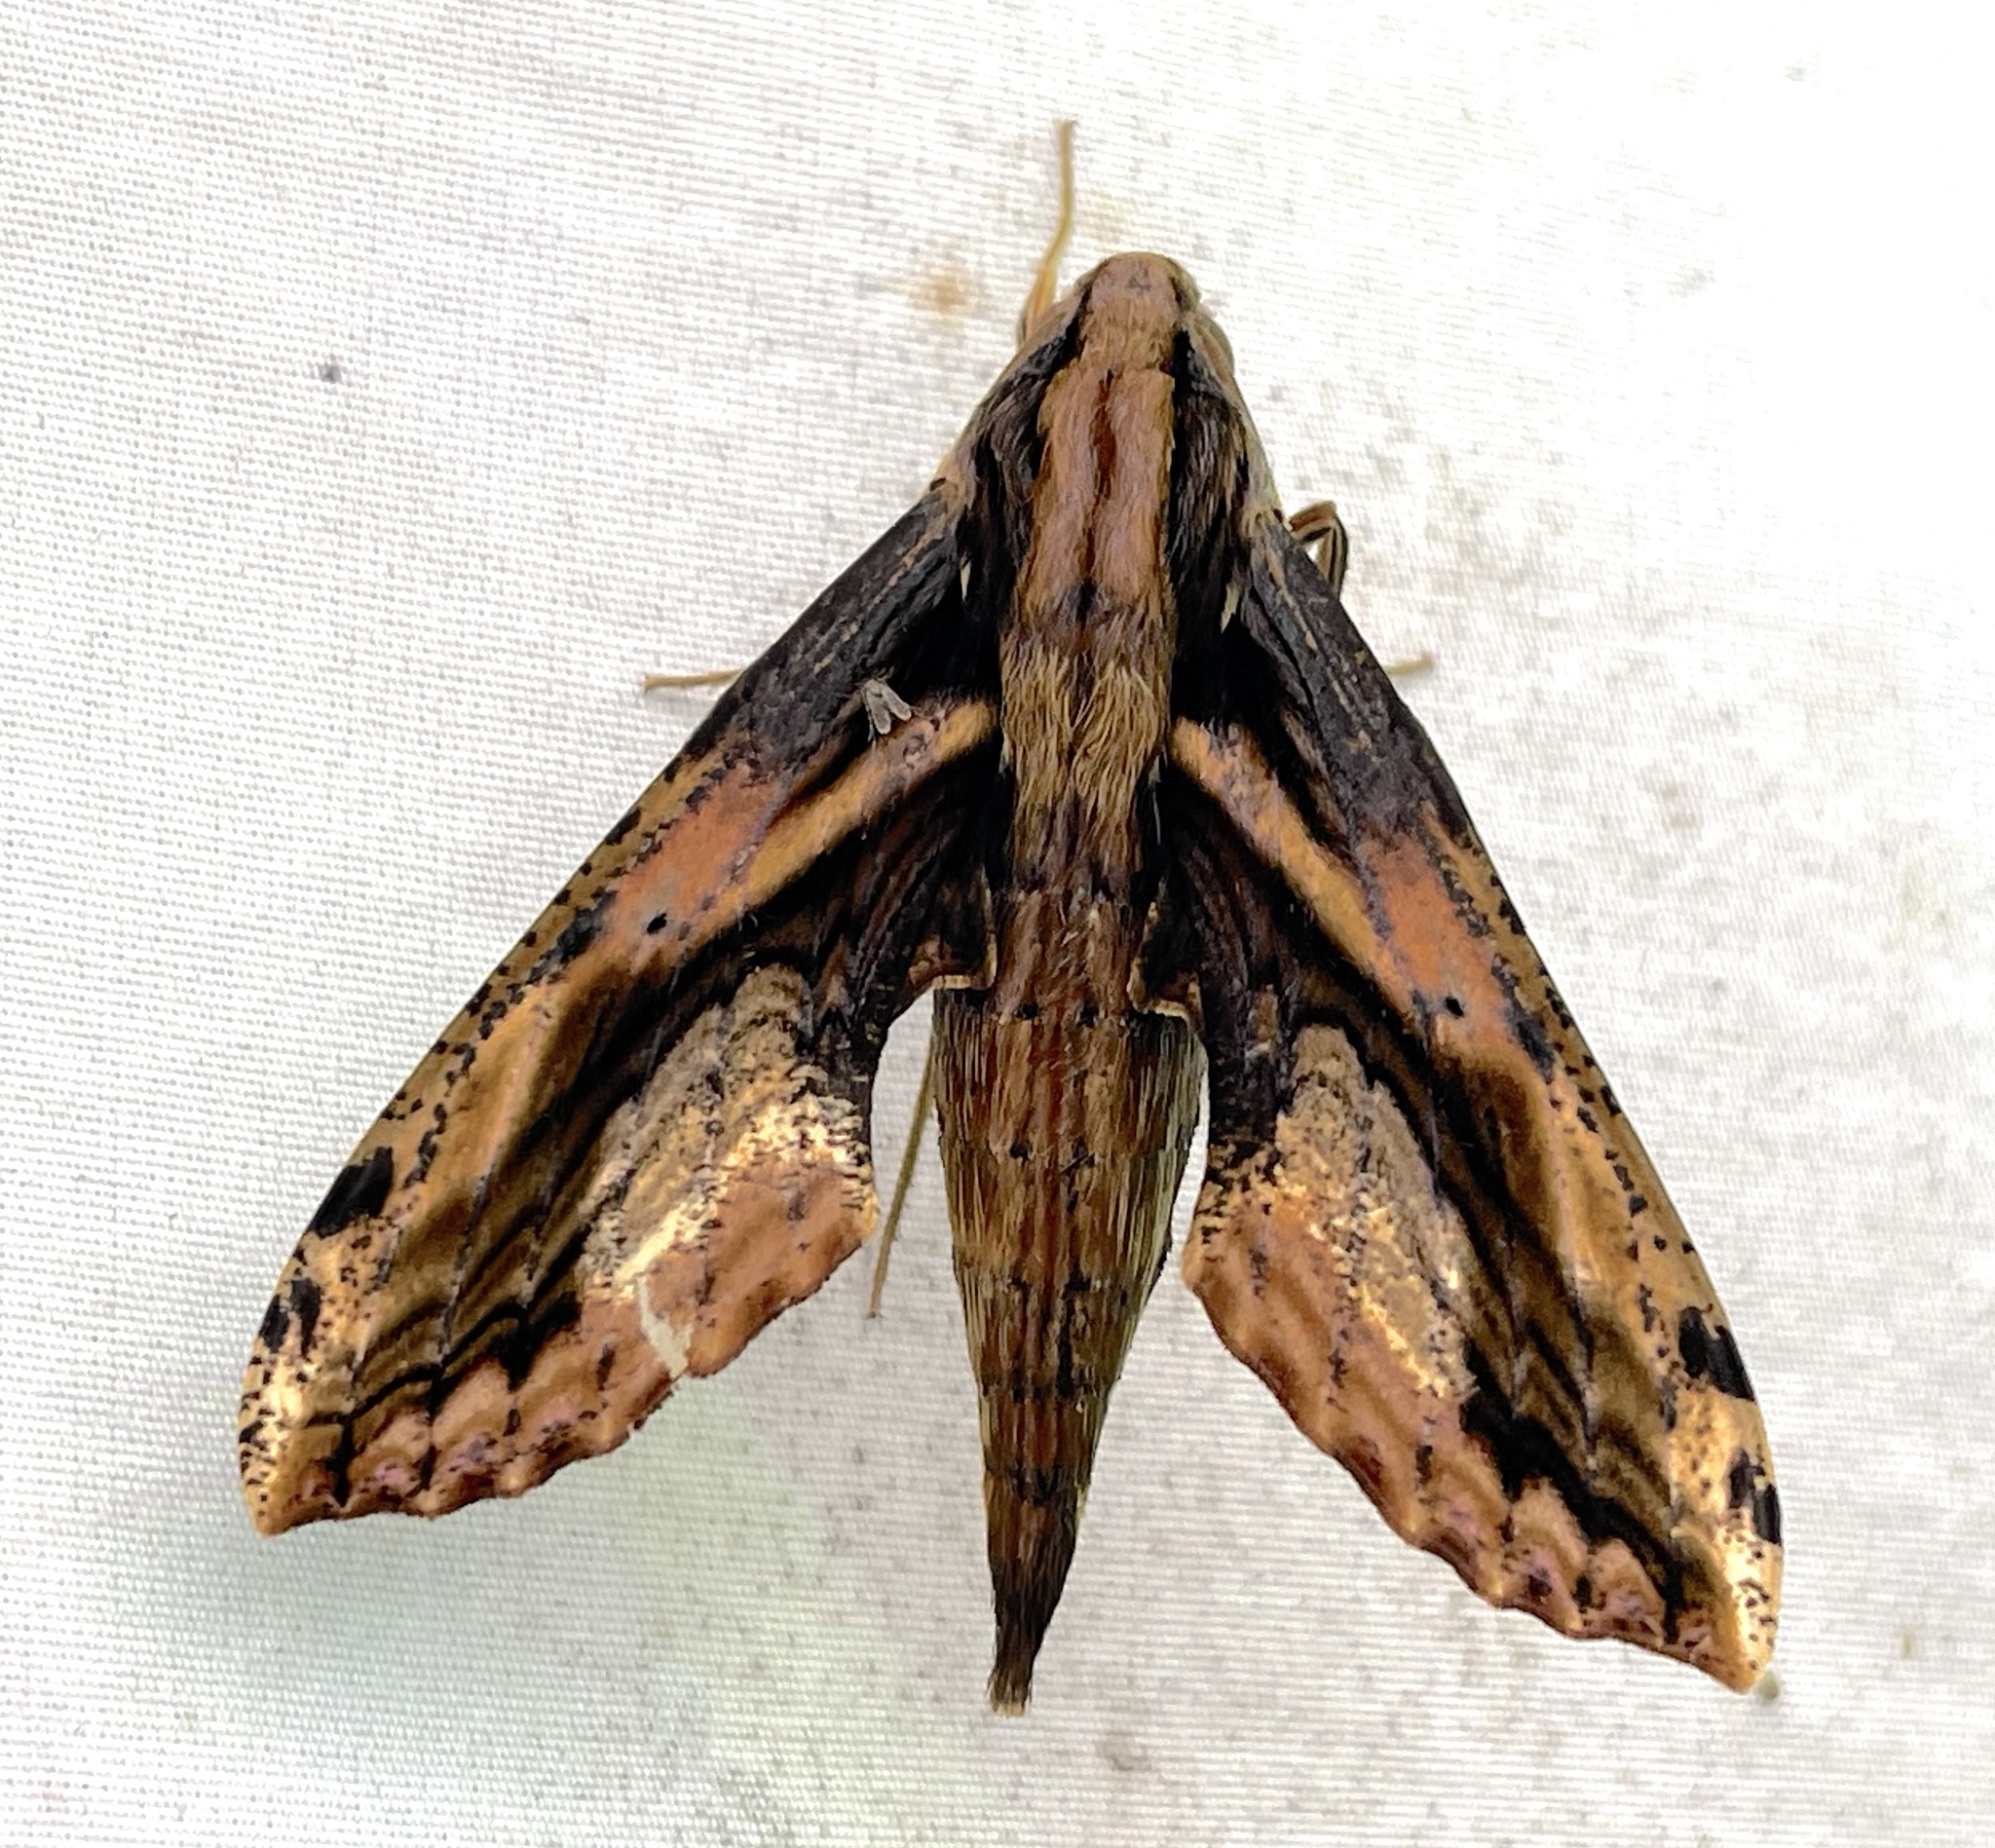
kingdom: Animalia
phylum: Arthropoda
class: Insecta
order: Lepidoptera
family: Sphingidae
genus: Xylophanes
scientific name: Xylophanes crenulatus
